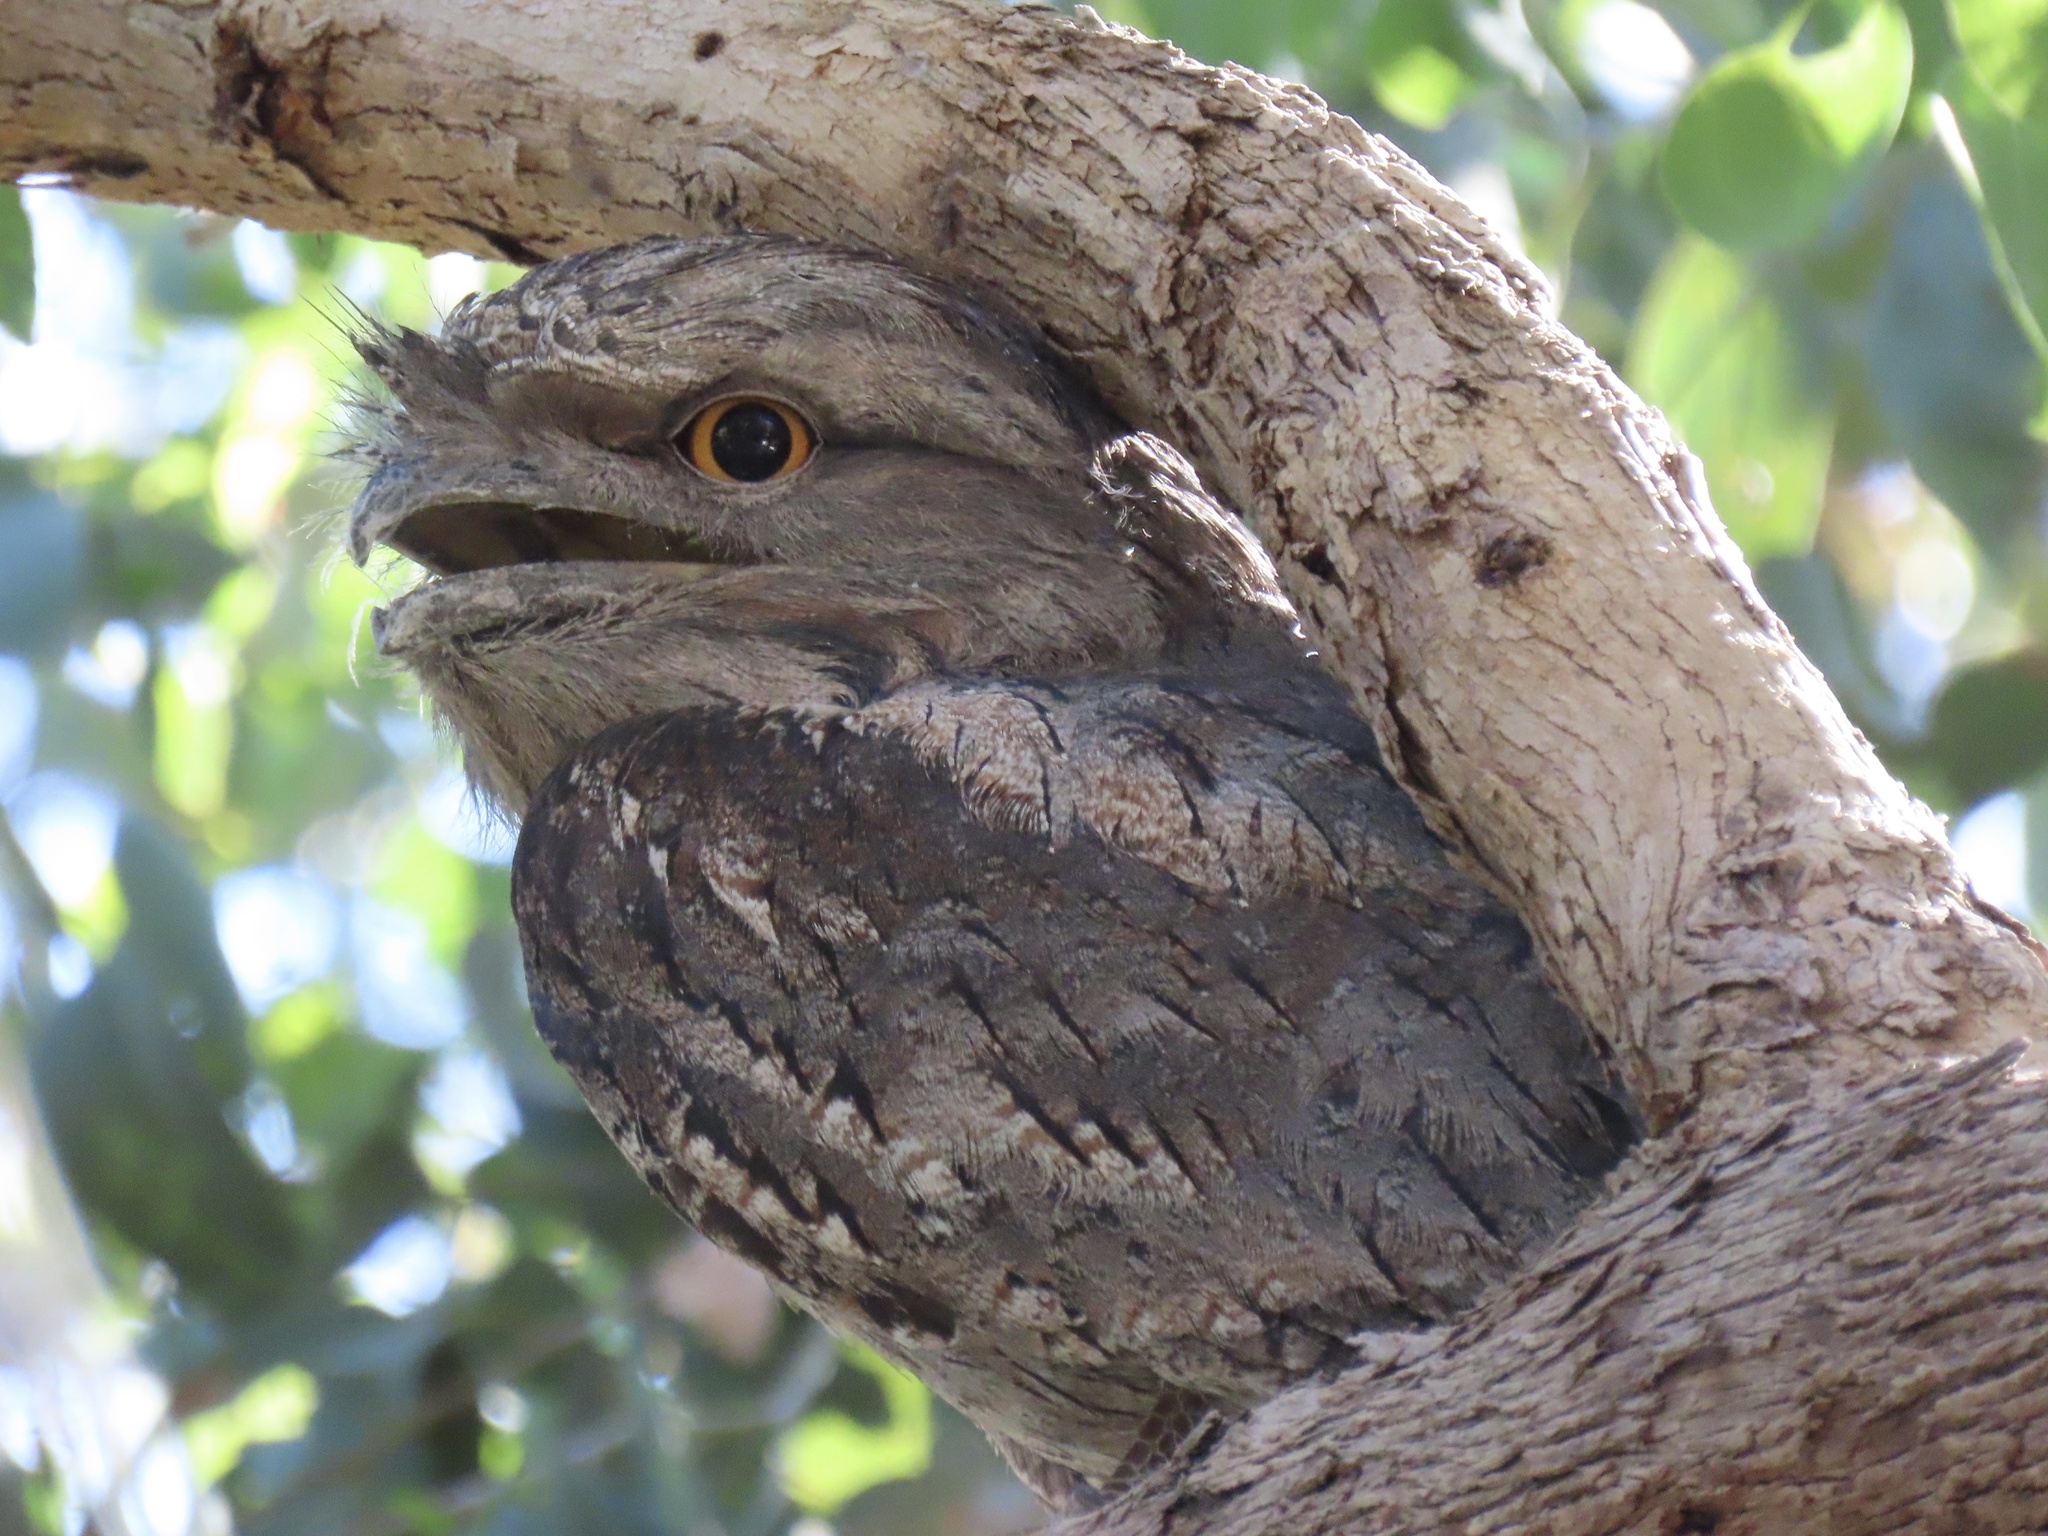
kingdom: Animalia
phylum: Chordata
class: Aves
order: Caprimulgiformes
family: Podargidae
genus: Podargus
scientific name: Podargus strigoides
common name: Tawny frogmouth
